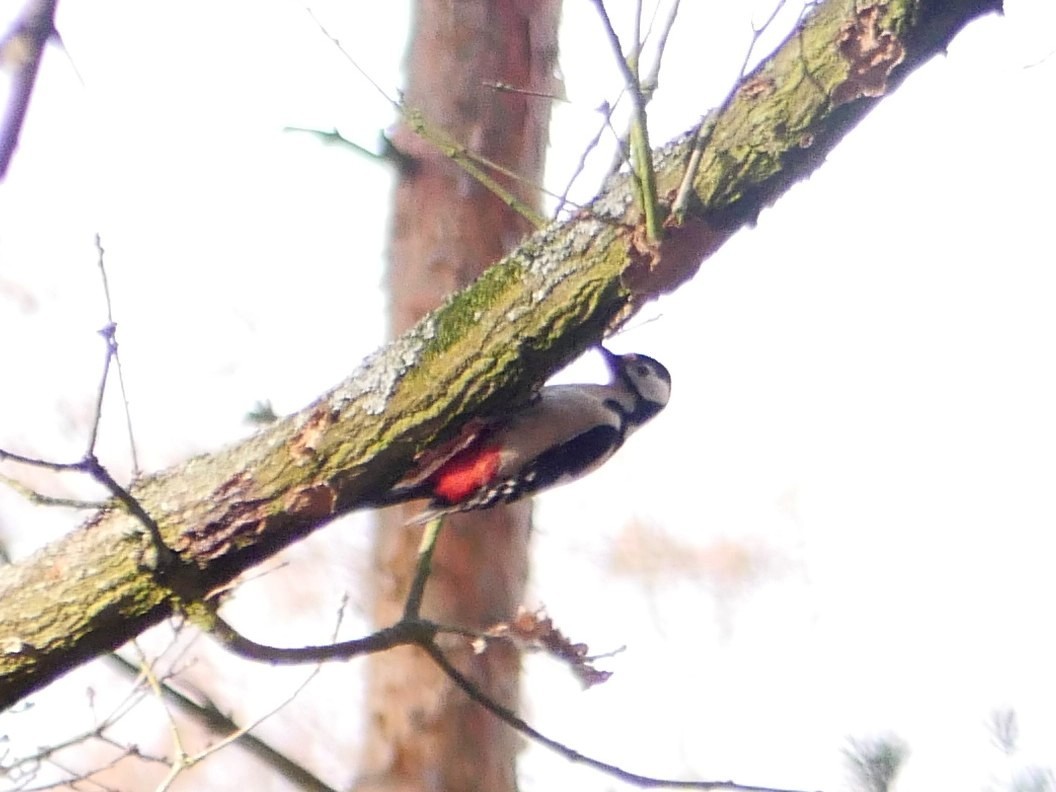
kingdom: Animalia
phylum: Chordata
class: Aves
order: Piciformes
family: Picidae
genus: Dendrocopos
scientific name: Dendrocopos major
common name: Great spotted woodpecker
